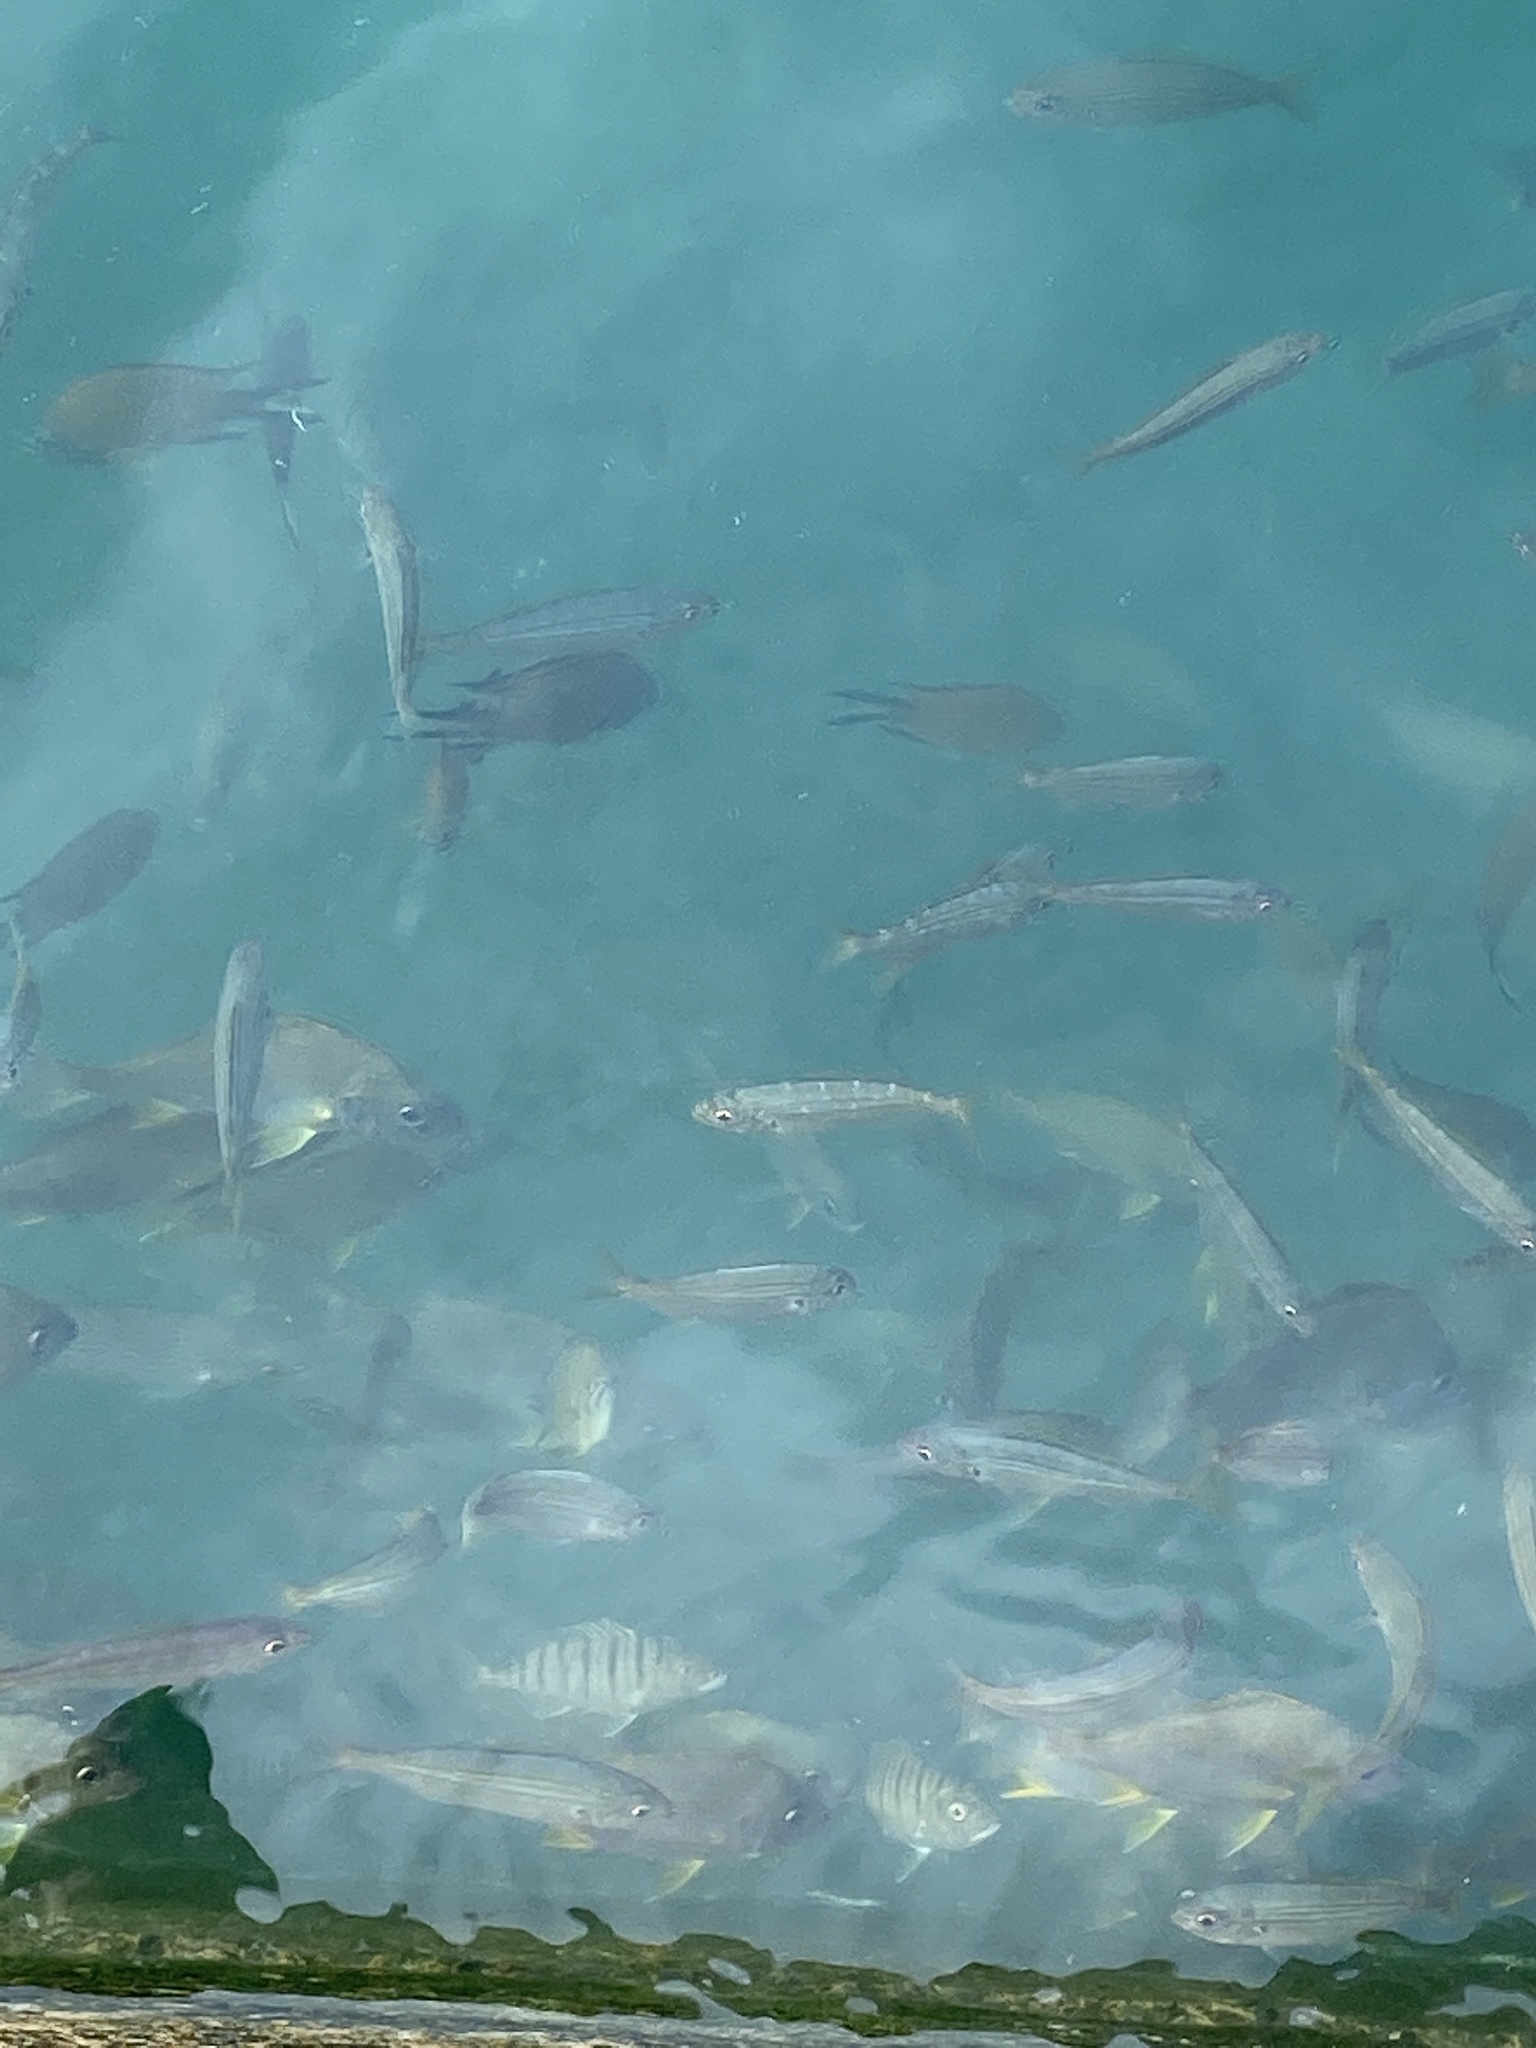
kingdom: Animalia
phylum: Chordata
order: Perciformes
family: Sparidae
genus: Boops
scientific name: Boops boops
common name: Bogue
